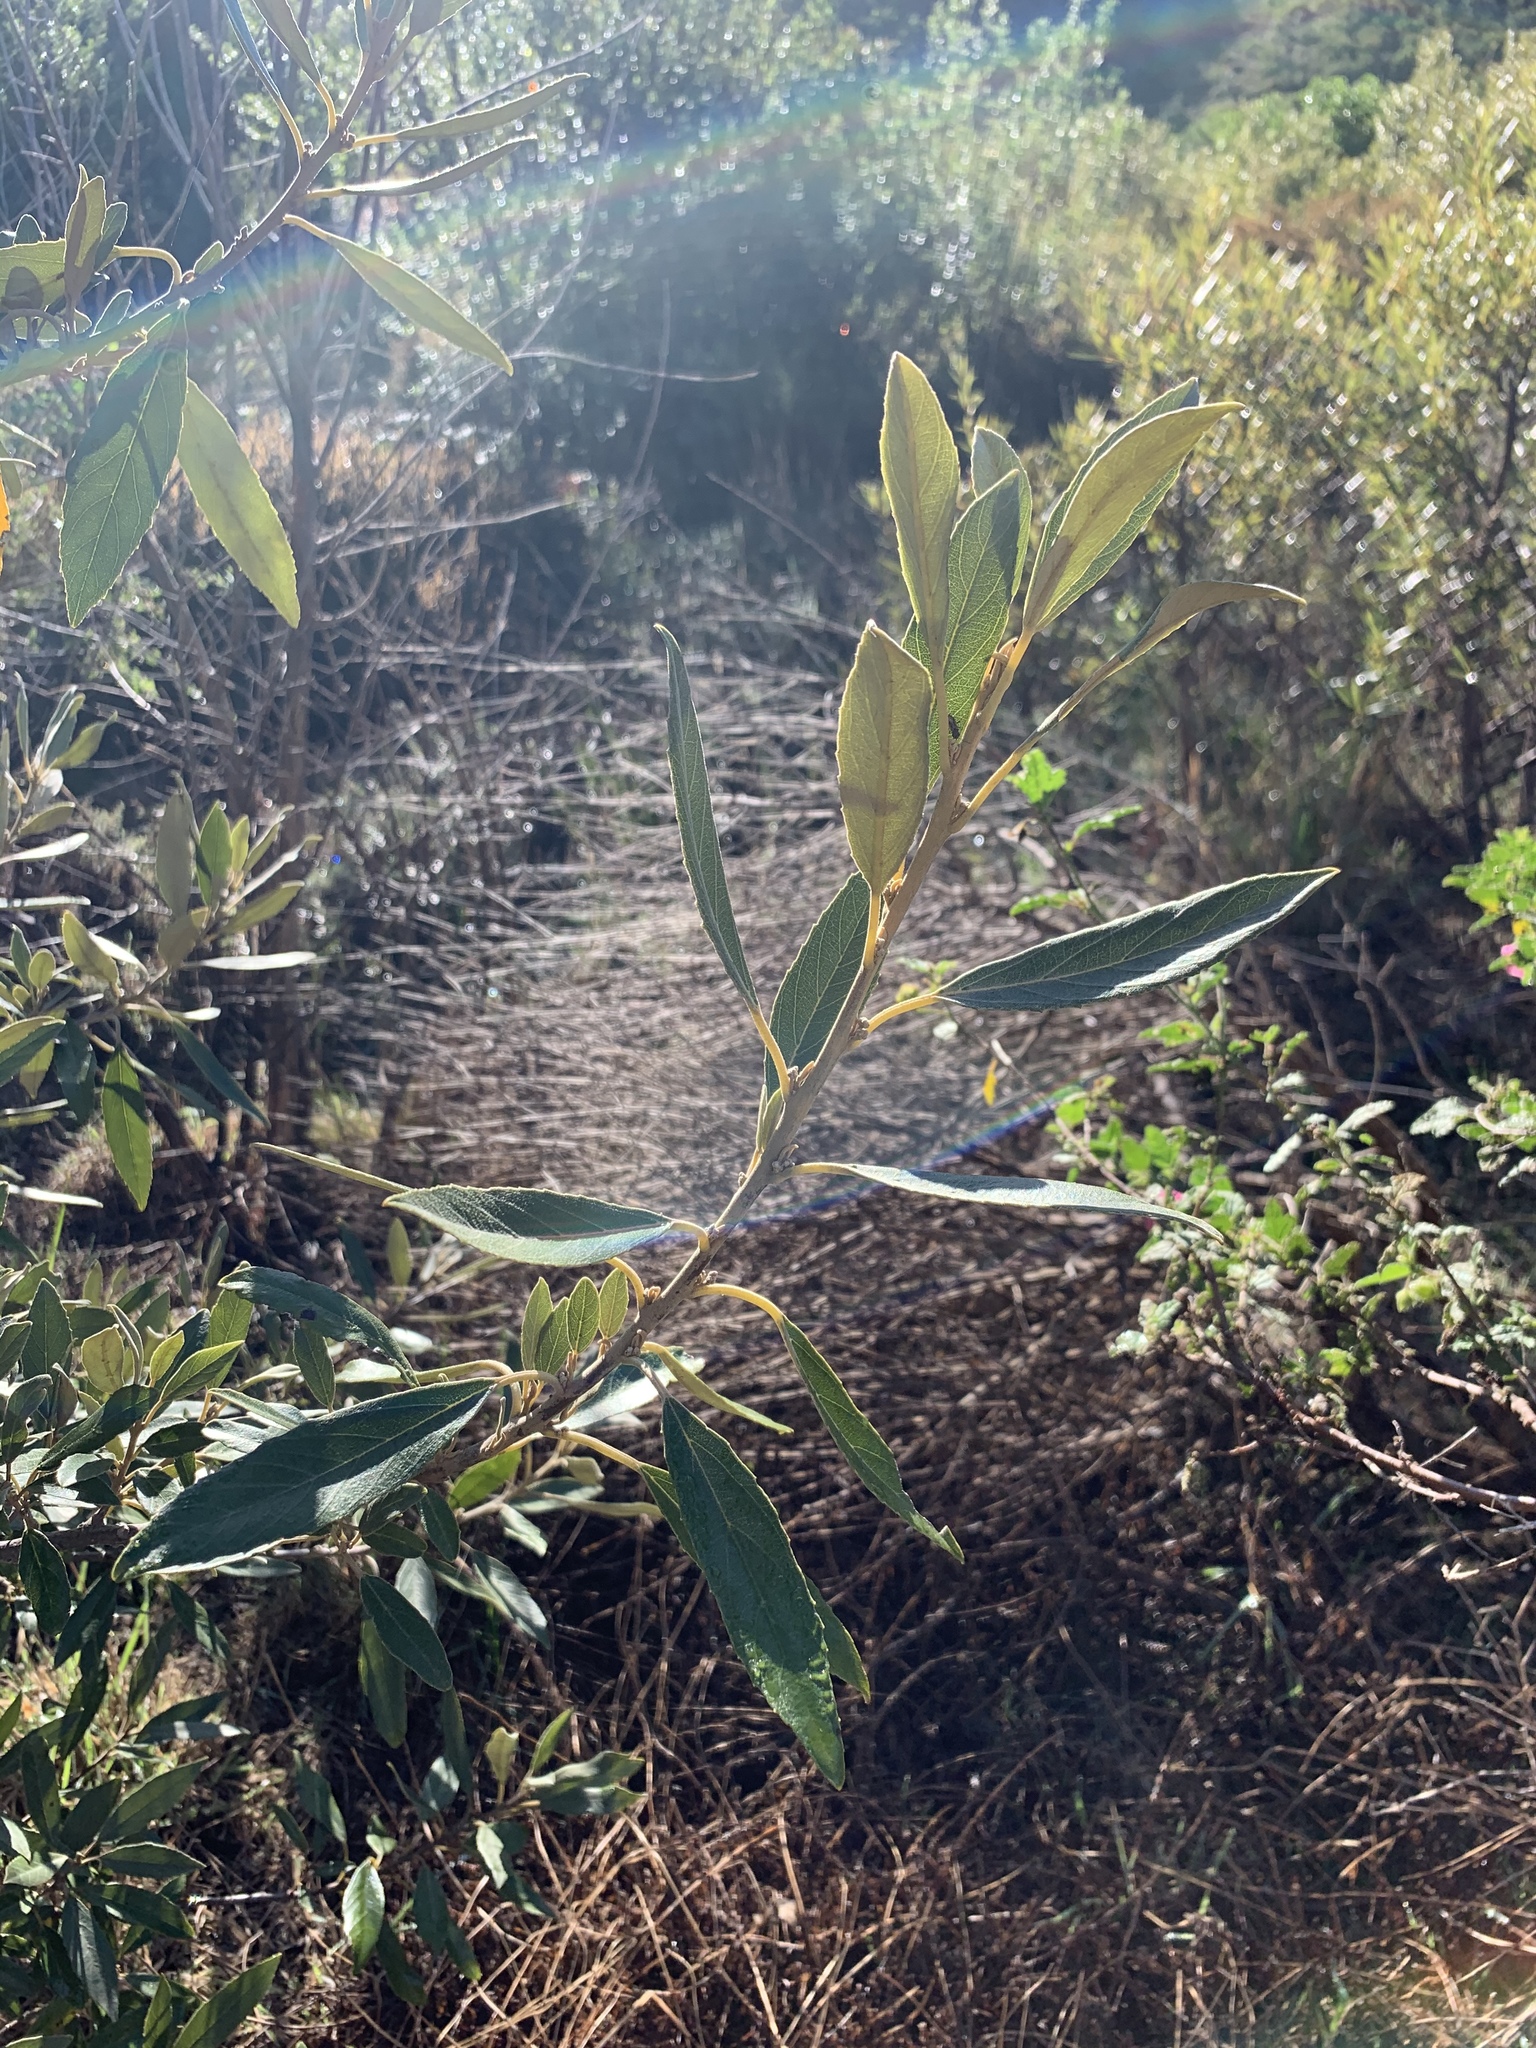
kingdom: Plantae
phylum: Tracheophyta
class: Magnoliopsida
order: Malpighiales
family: Achariaceae
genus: Kiggelaria
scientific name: Kiggelaria africana
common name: Wild peach
